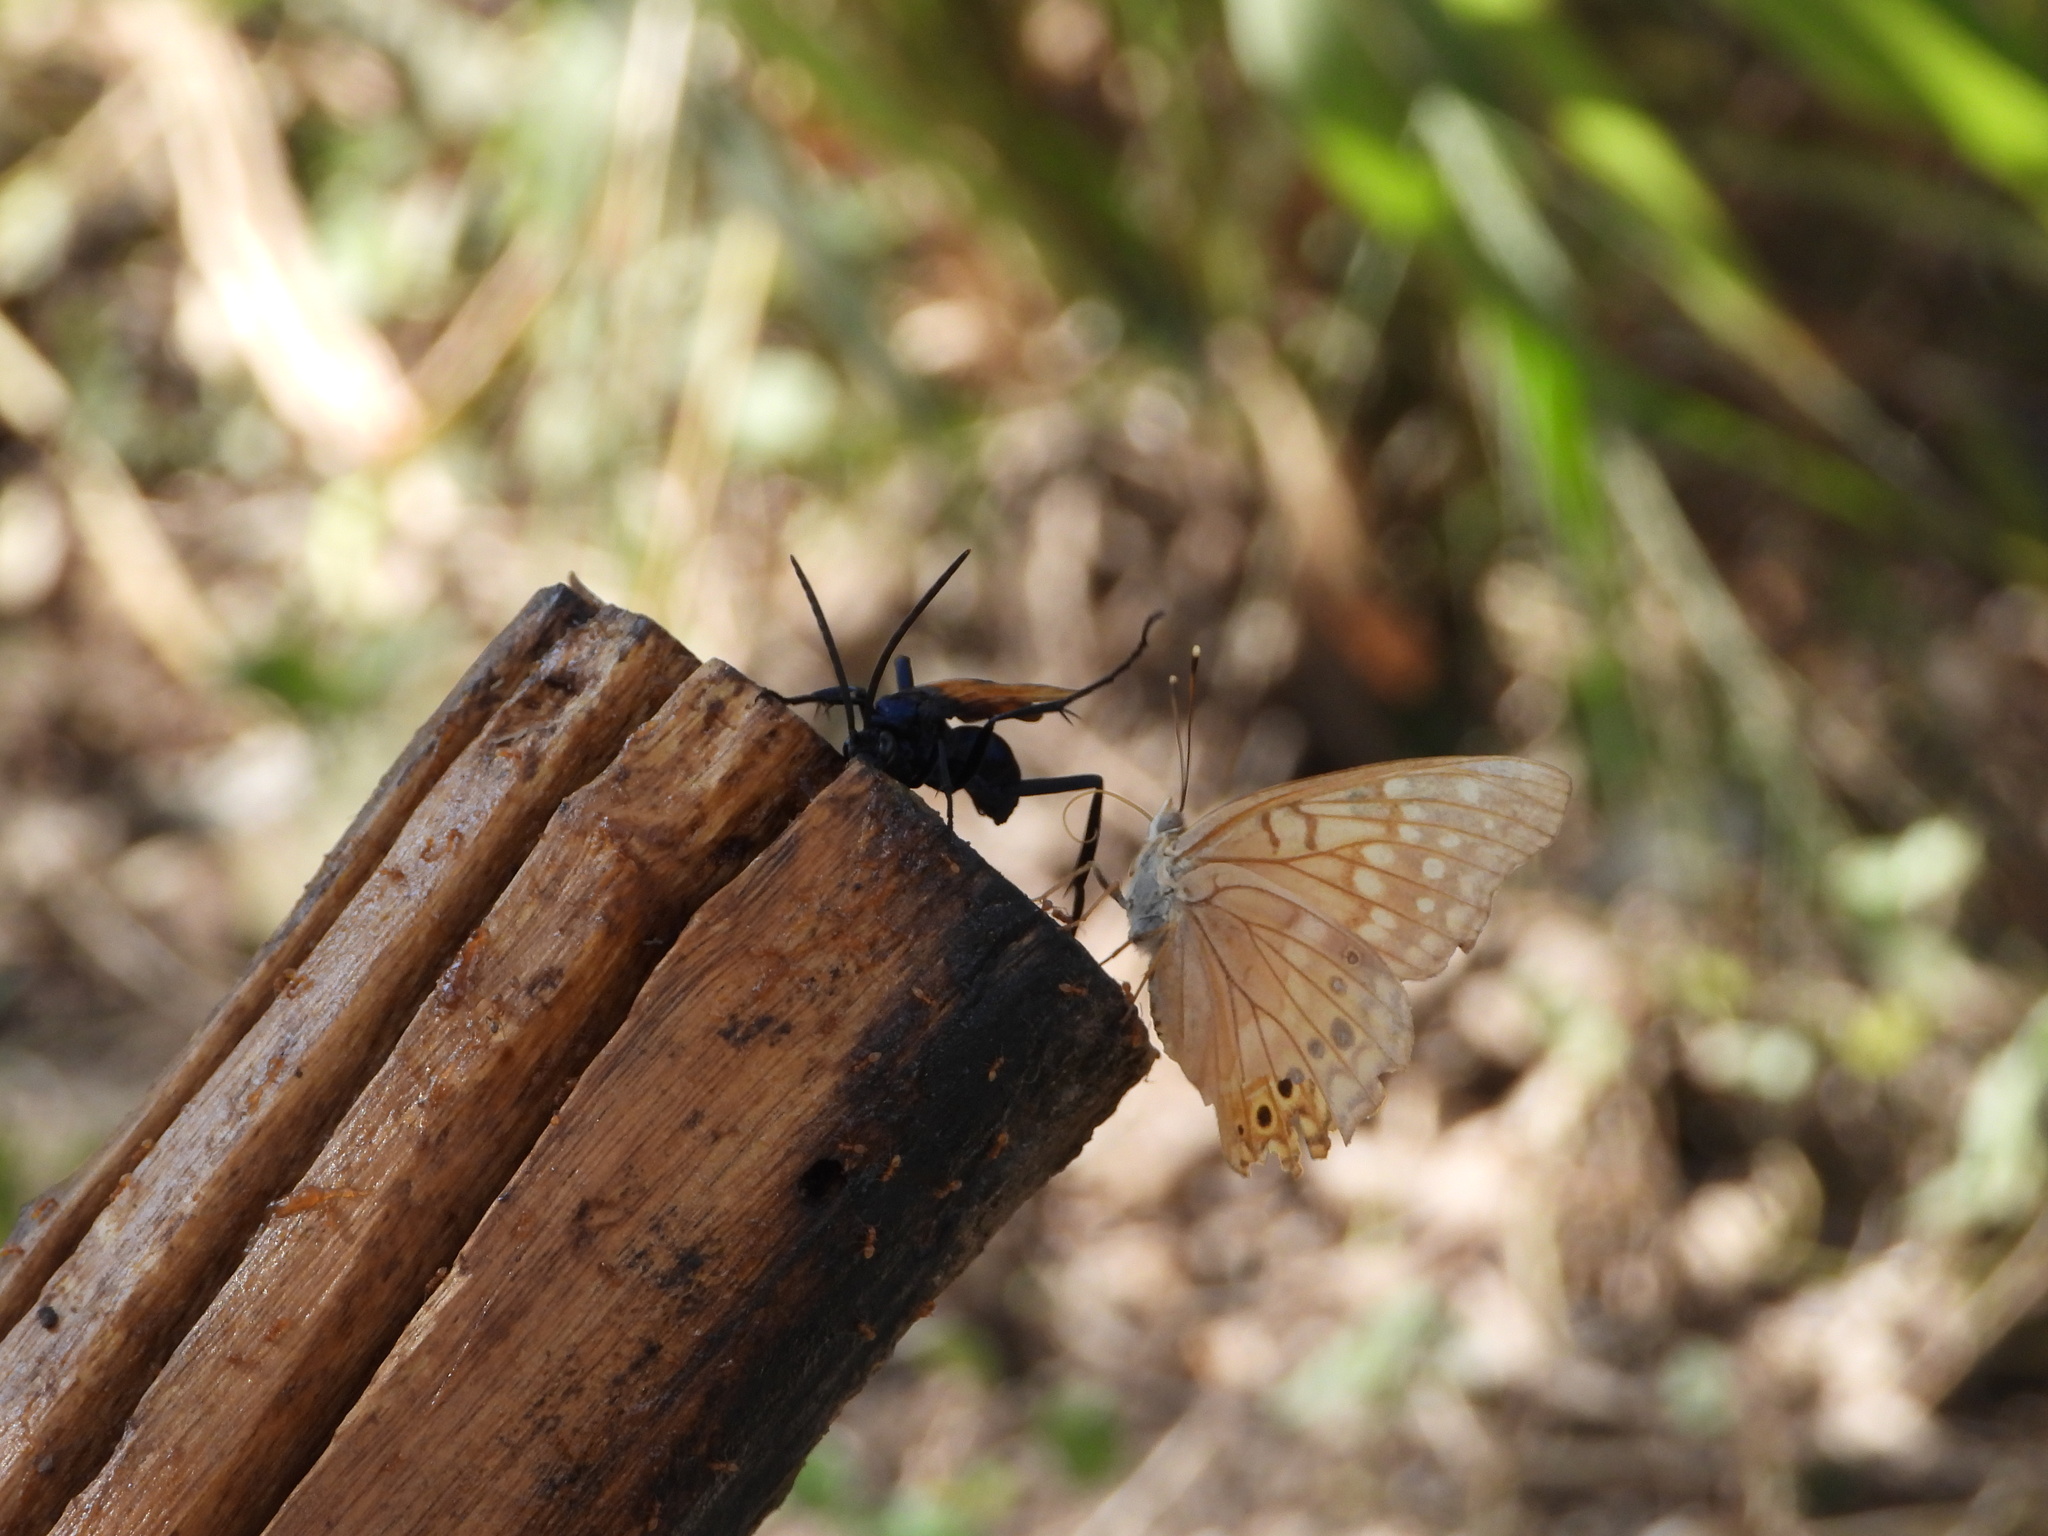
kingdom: Animalia
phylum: Arthropoda
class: Insecta
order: Lepidoptera
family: Nymphalidae
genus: Asterocampa
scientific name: Asterocampa clyton
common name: Tawny emperor
